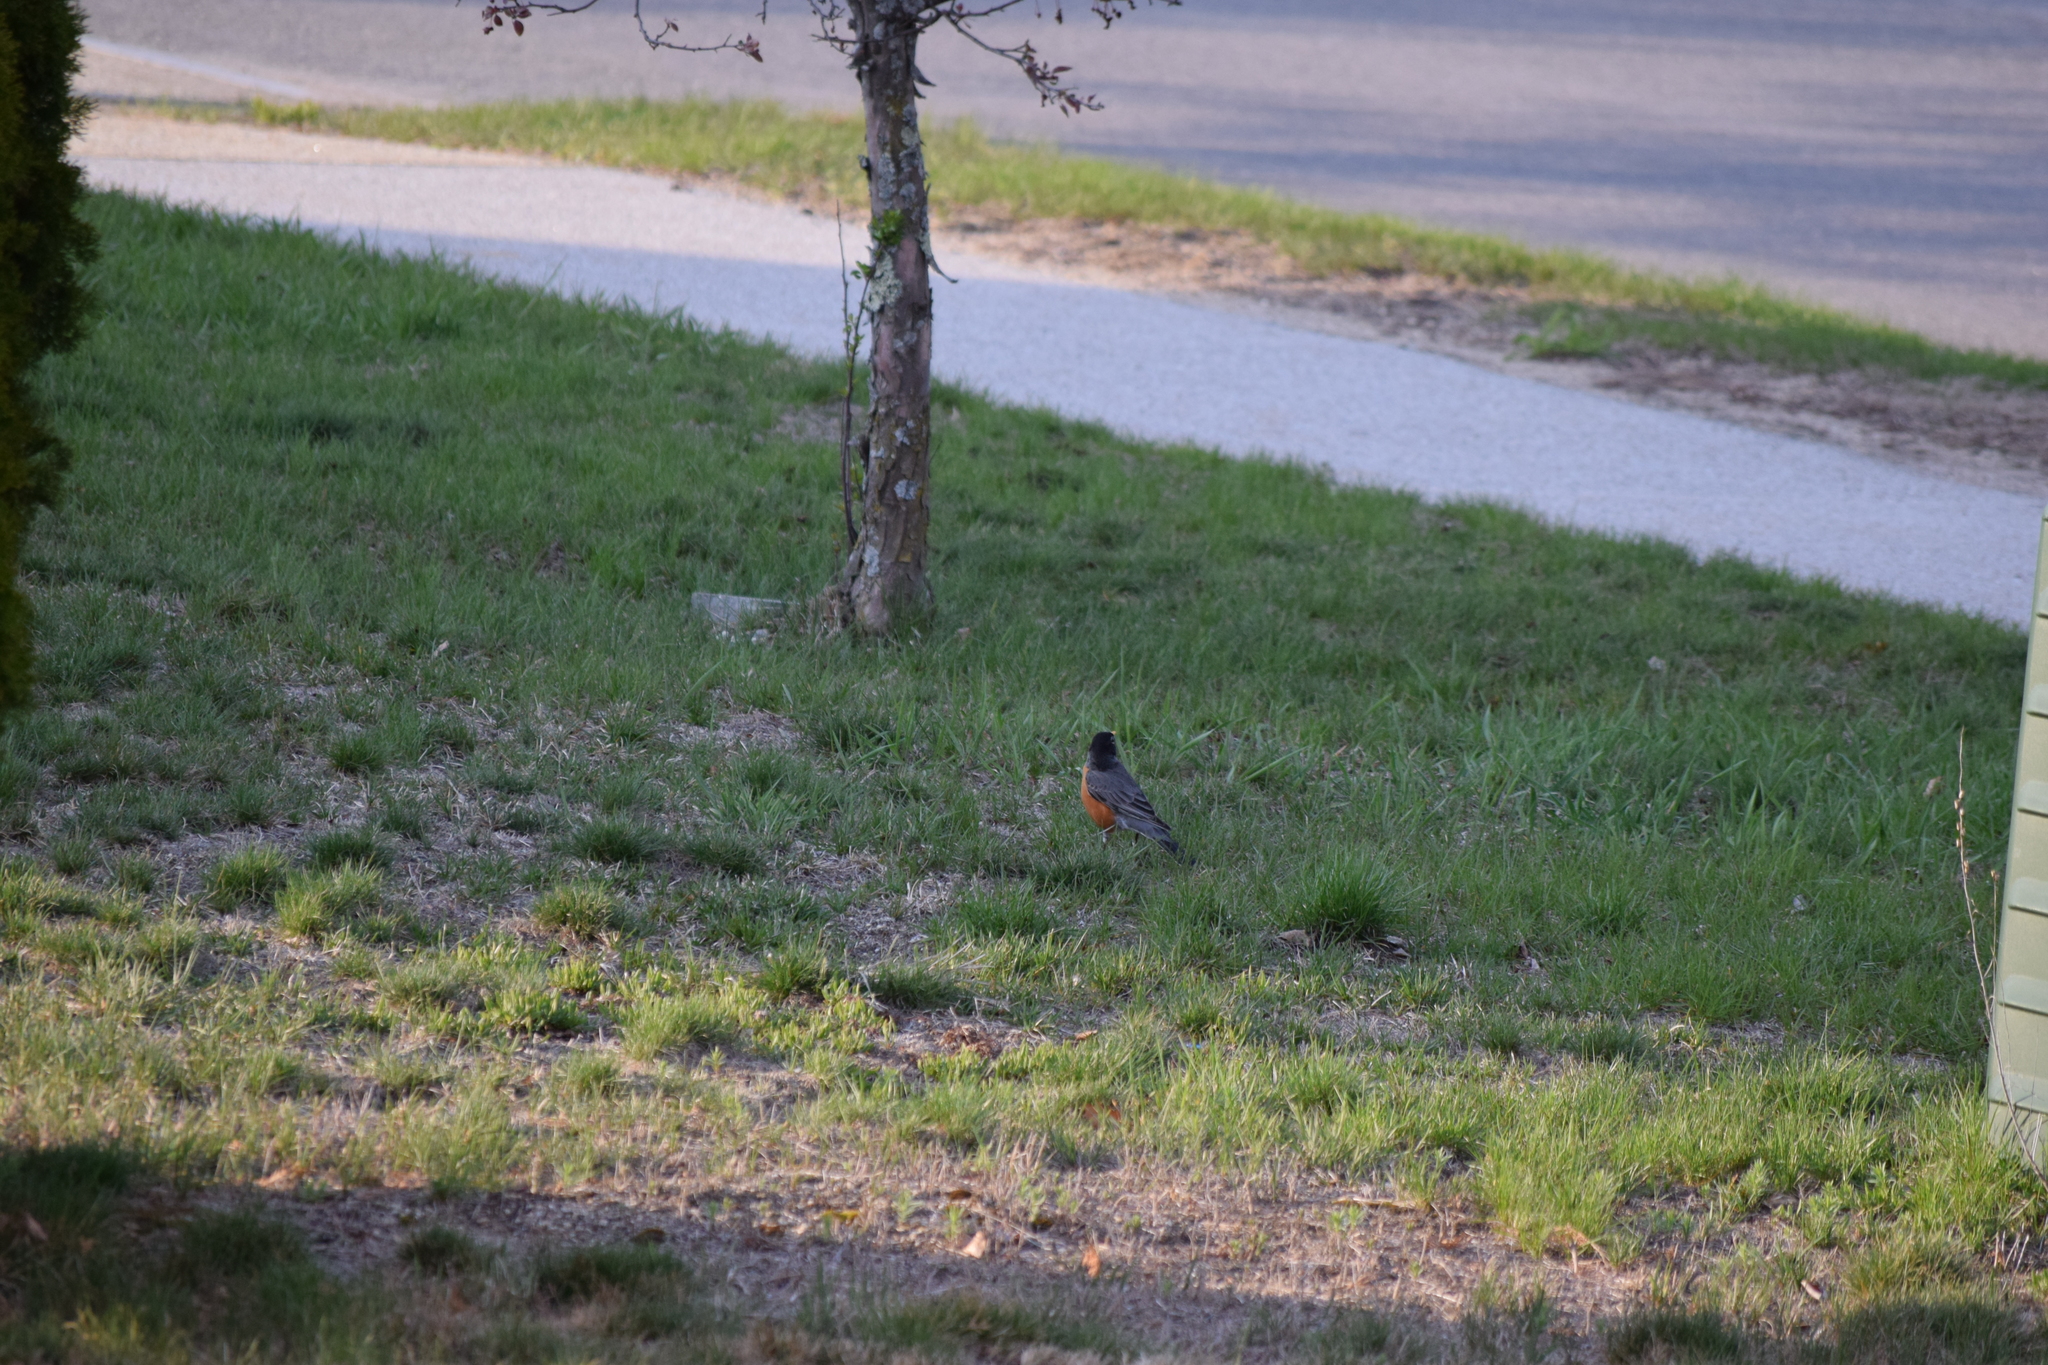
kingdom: Animalia
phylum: Chordata
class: Aves
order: Passeriformes
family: Turdidae
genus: Turdus
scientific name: Turdus migratorius
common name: American robin
